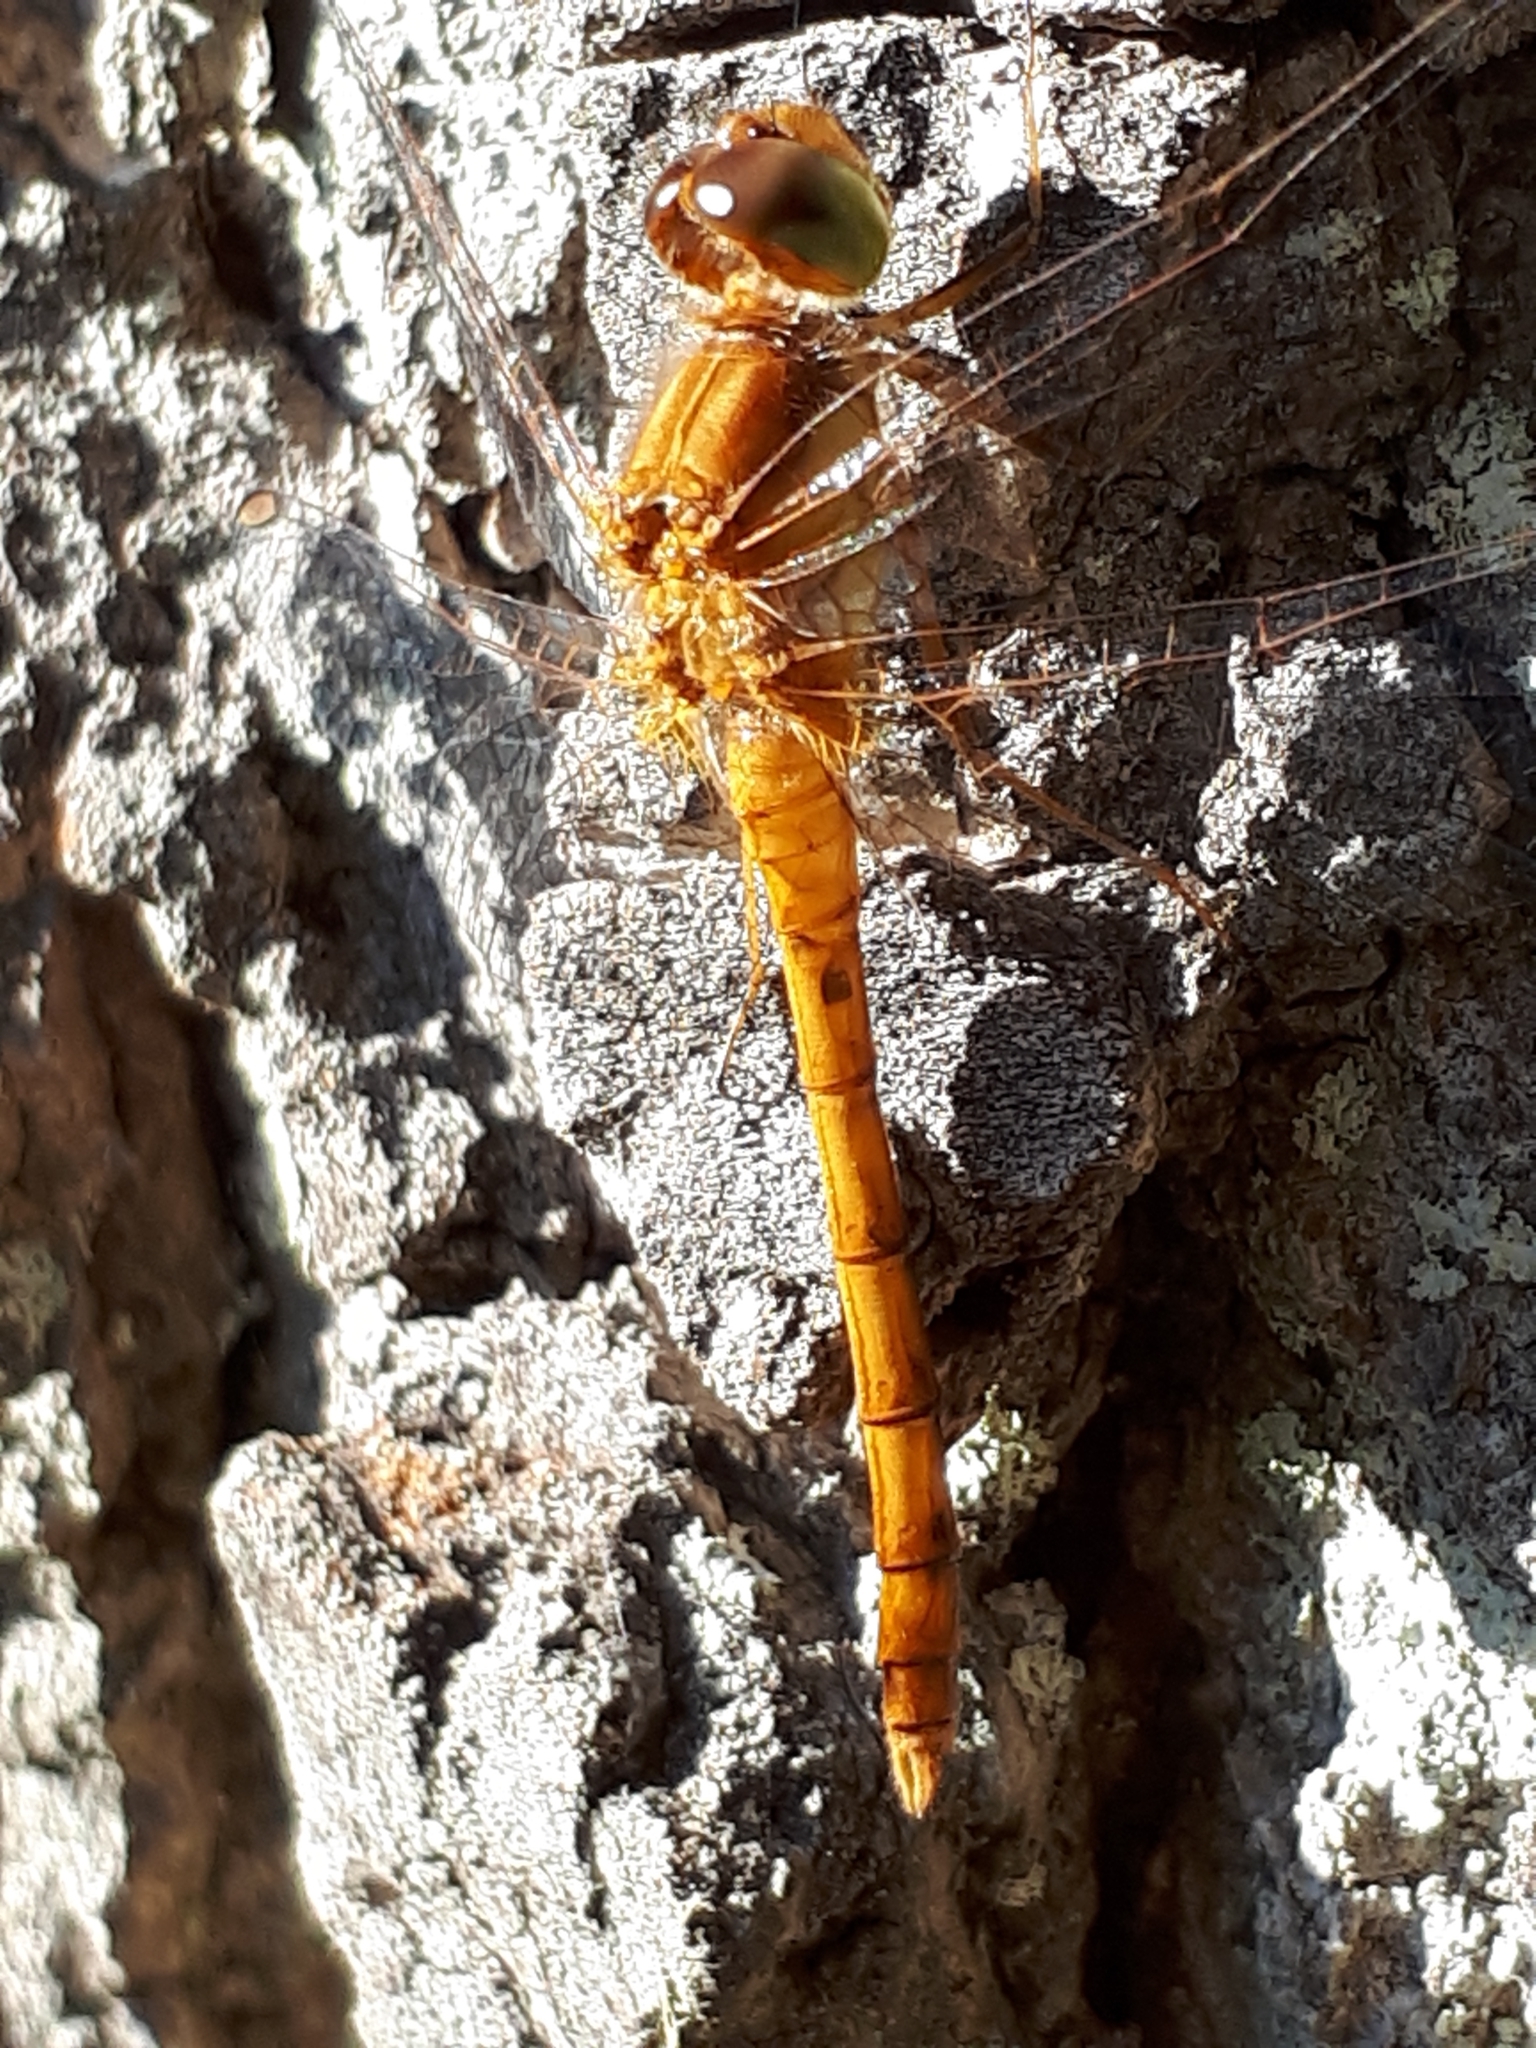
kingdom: Animalia
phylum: Arthropoda
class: Insecta
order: Odonata
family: Libellulidae
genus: Sympetrum
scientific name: Sympetrum vicinum
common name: Autumn meadowhawk
